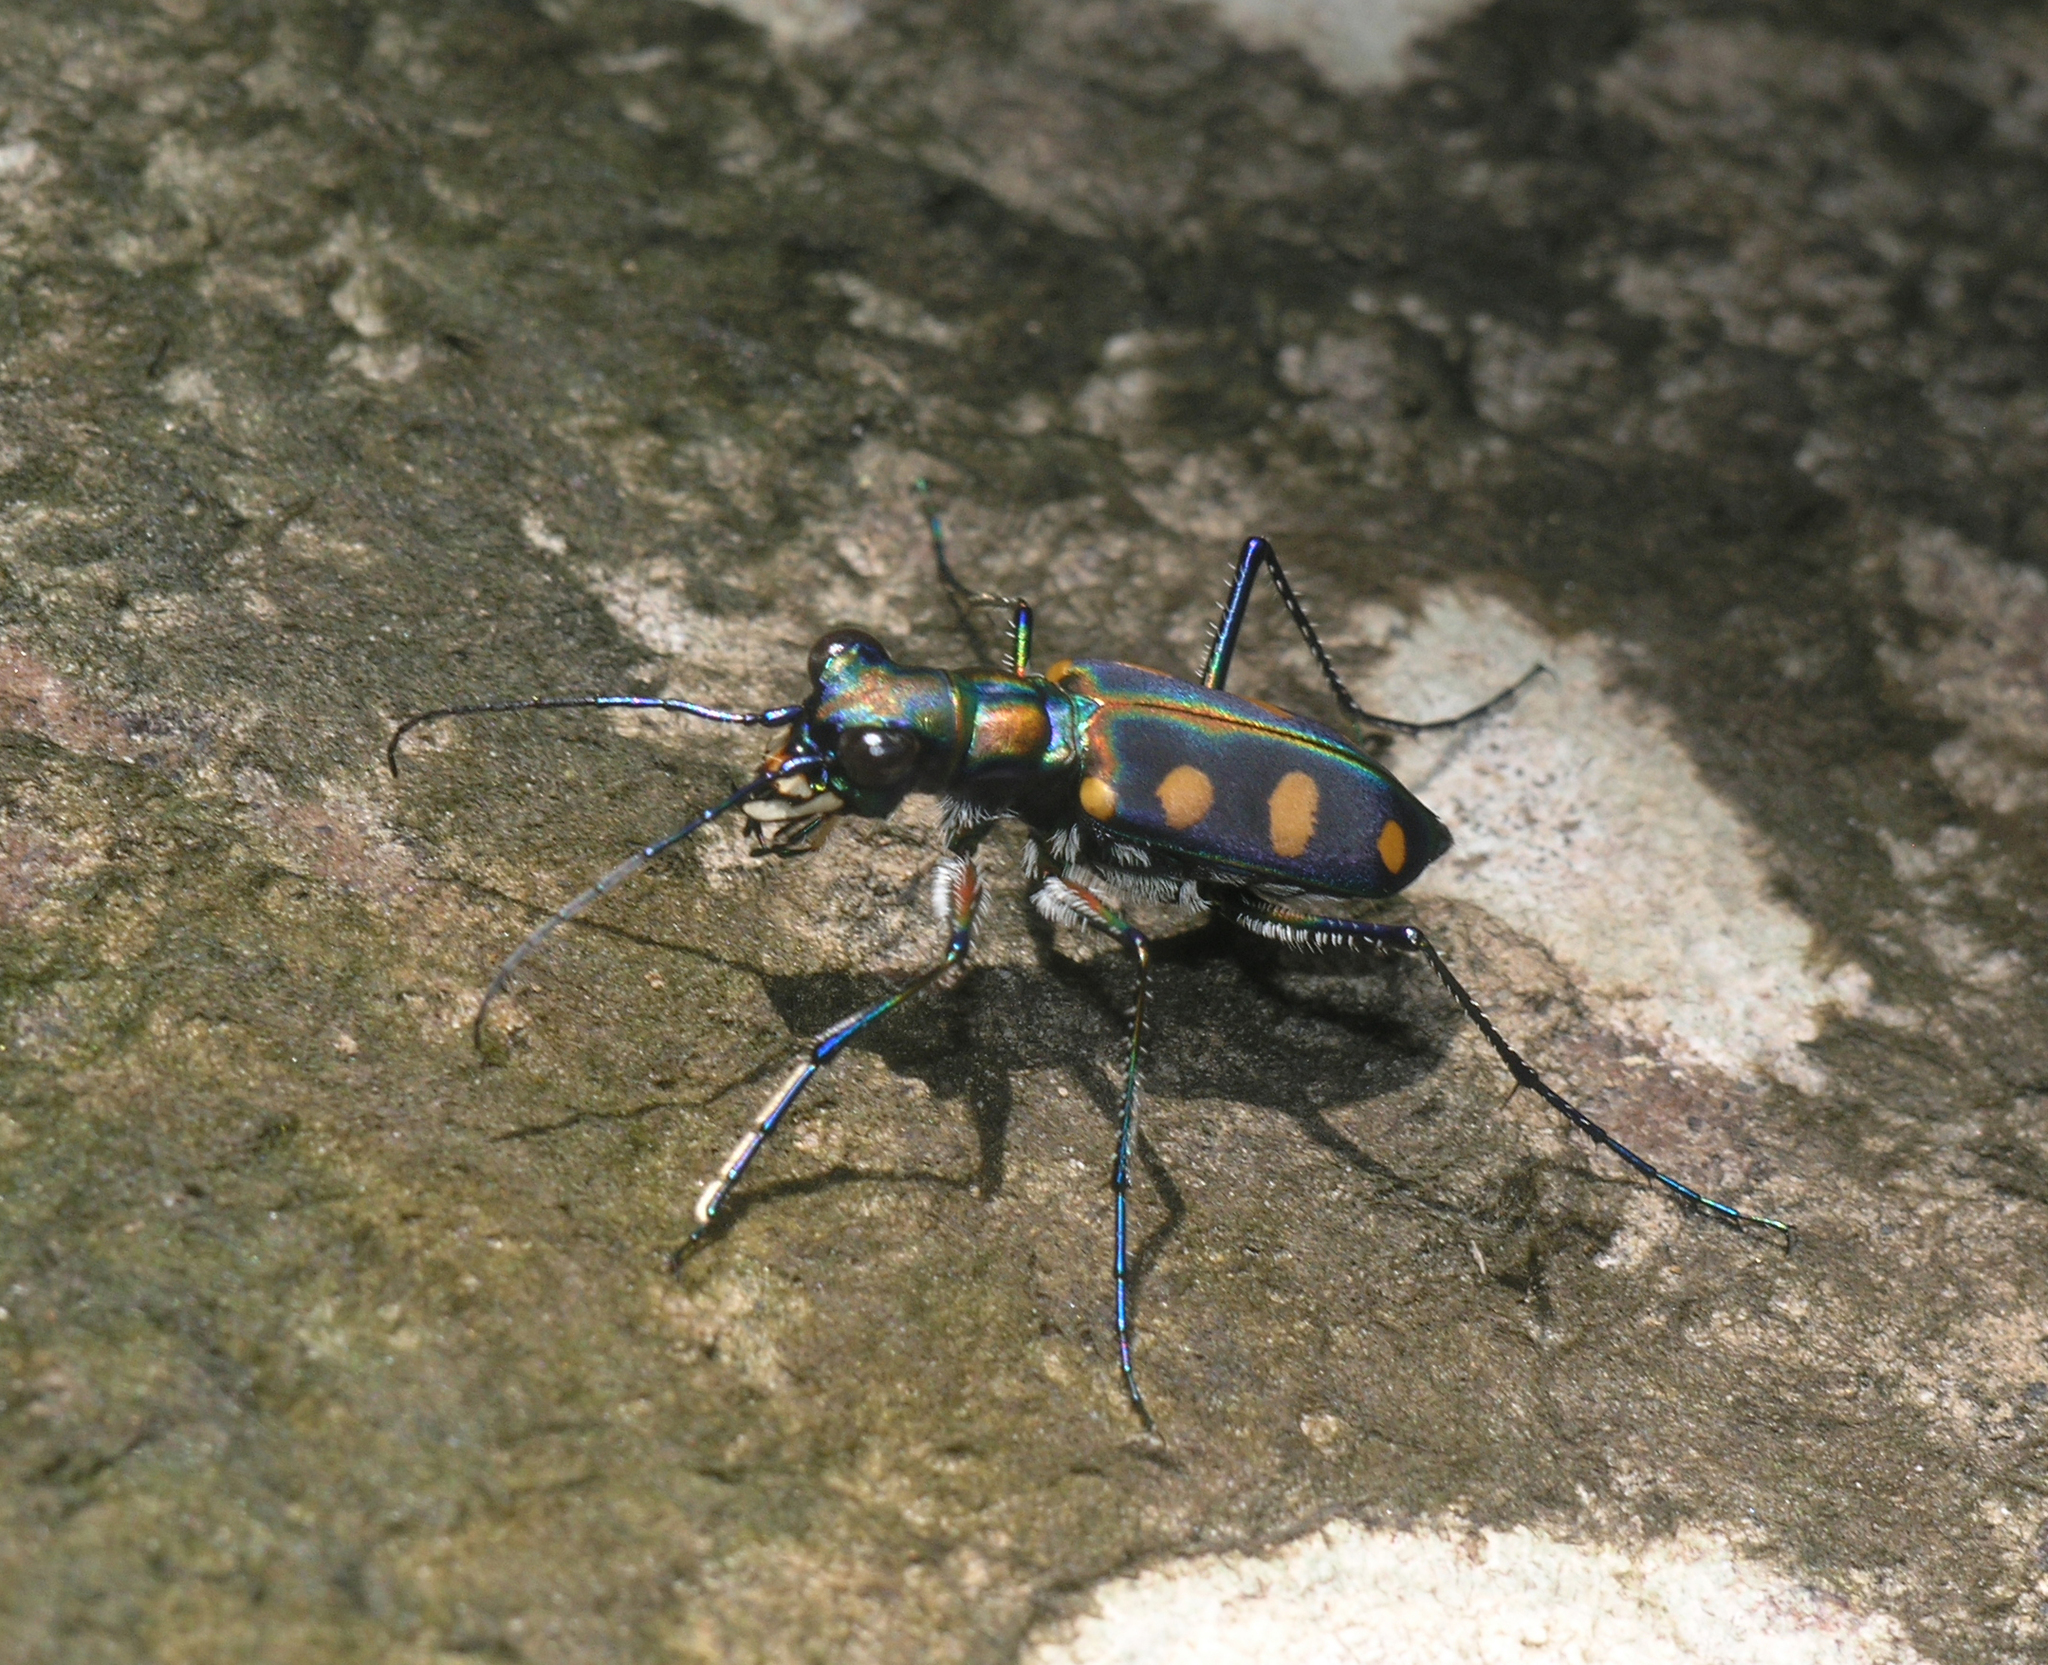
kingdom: Animalia
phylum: Arthropoda
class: Insecta
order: Coleoptera
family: Carabidae
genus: Cicindela
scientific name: Cicindela aurulenta
